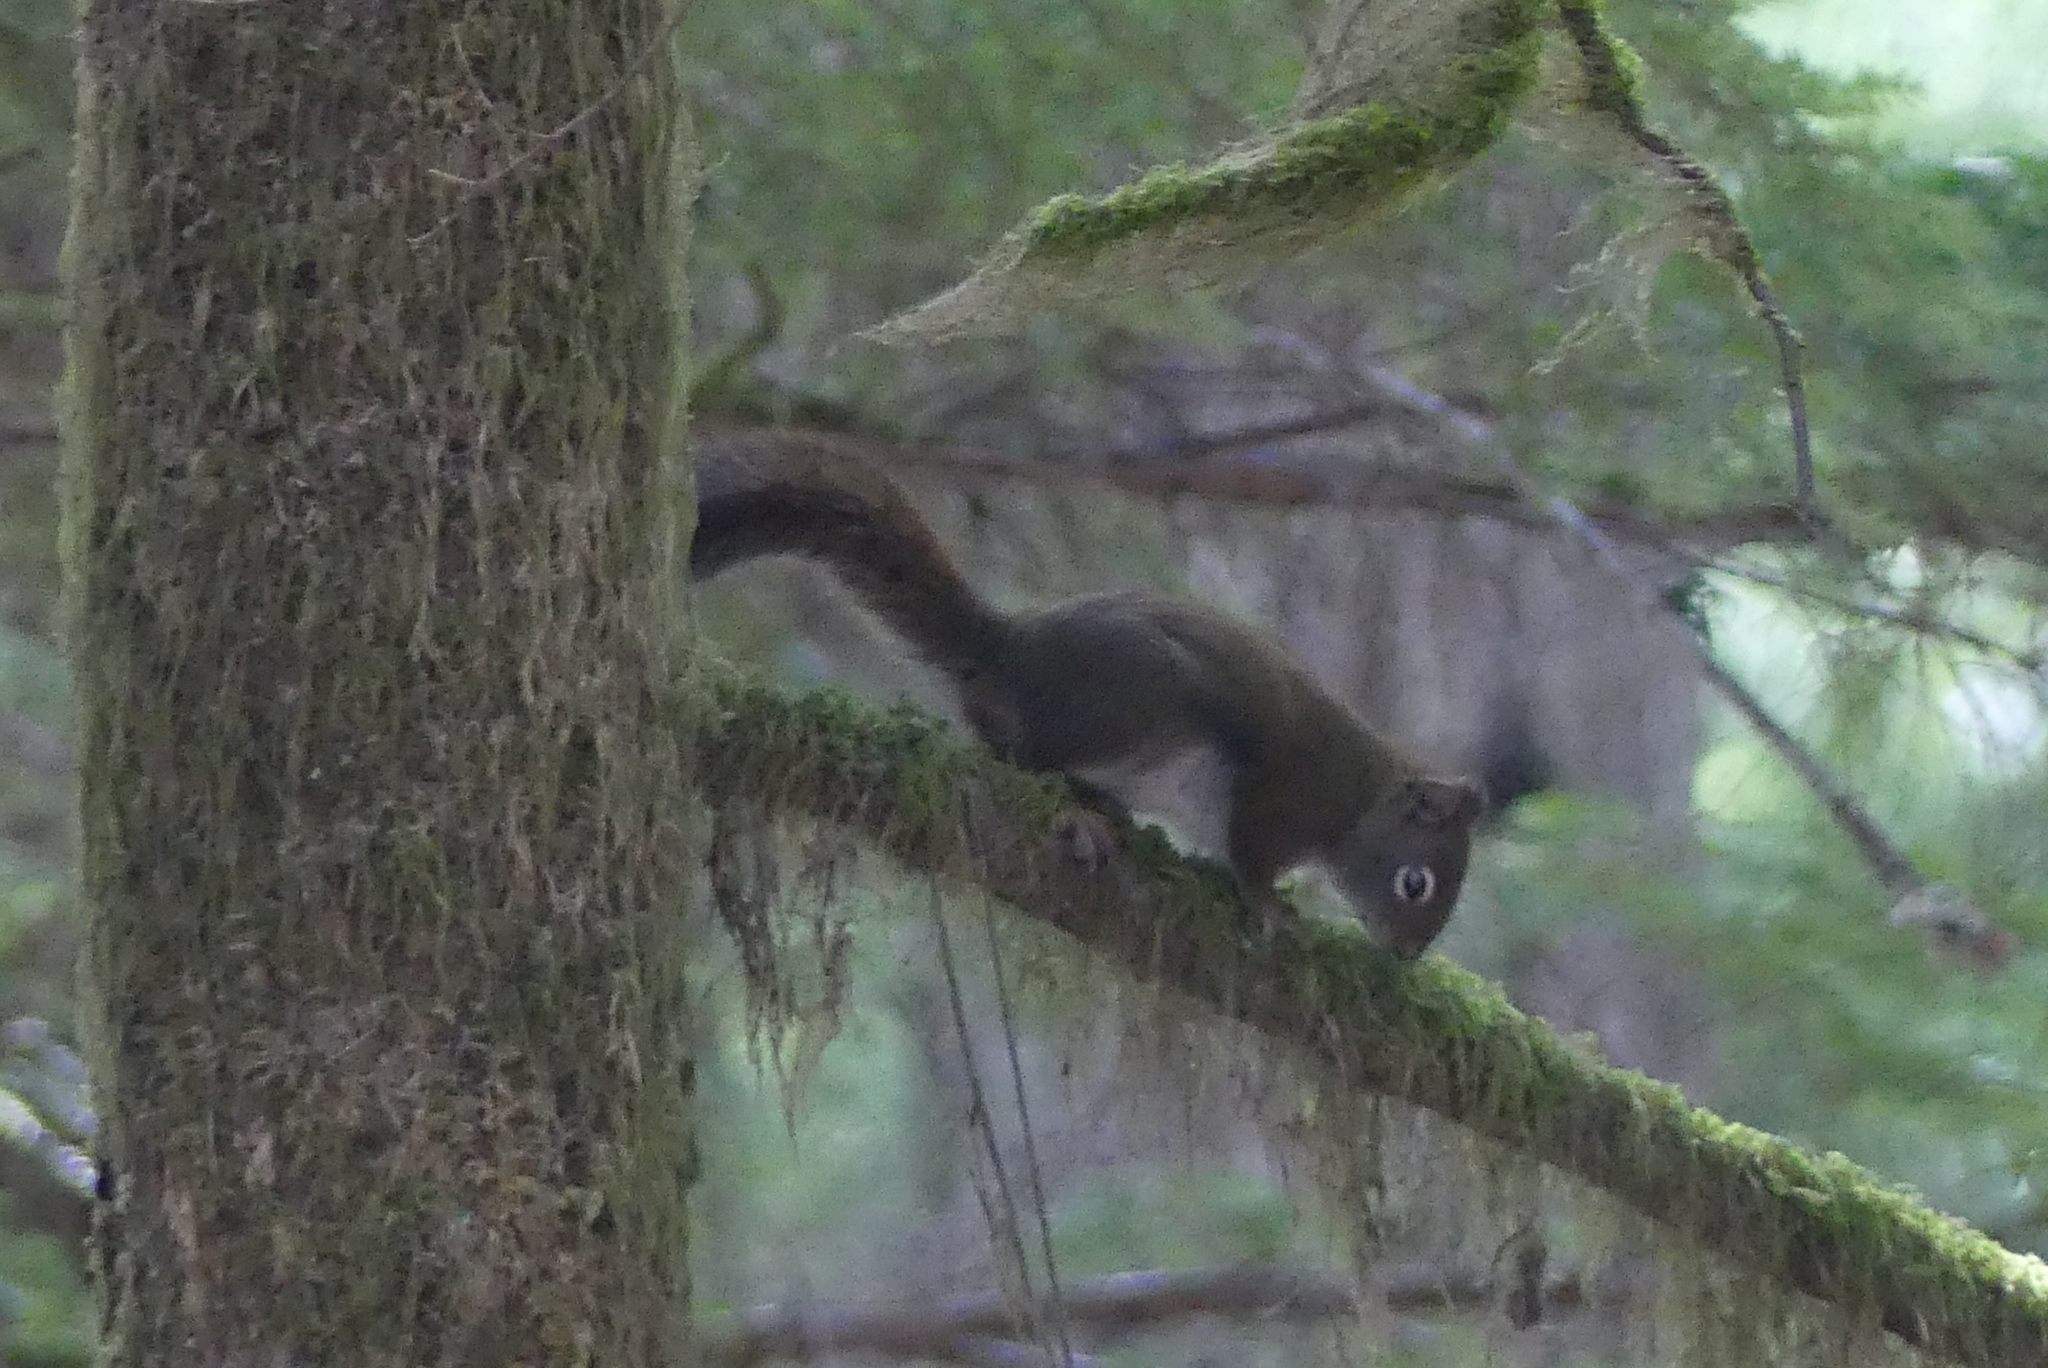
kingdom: Animalia
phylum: Chordata
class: Mammalia
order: Rodentia
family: Sciuridae
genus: Tamiasciurus
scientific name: Tamiasciurus hudsonicus
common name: Red squirrel
